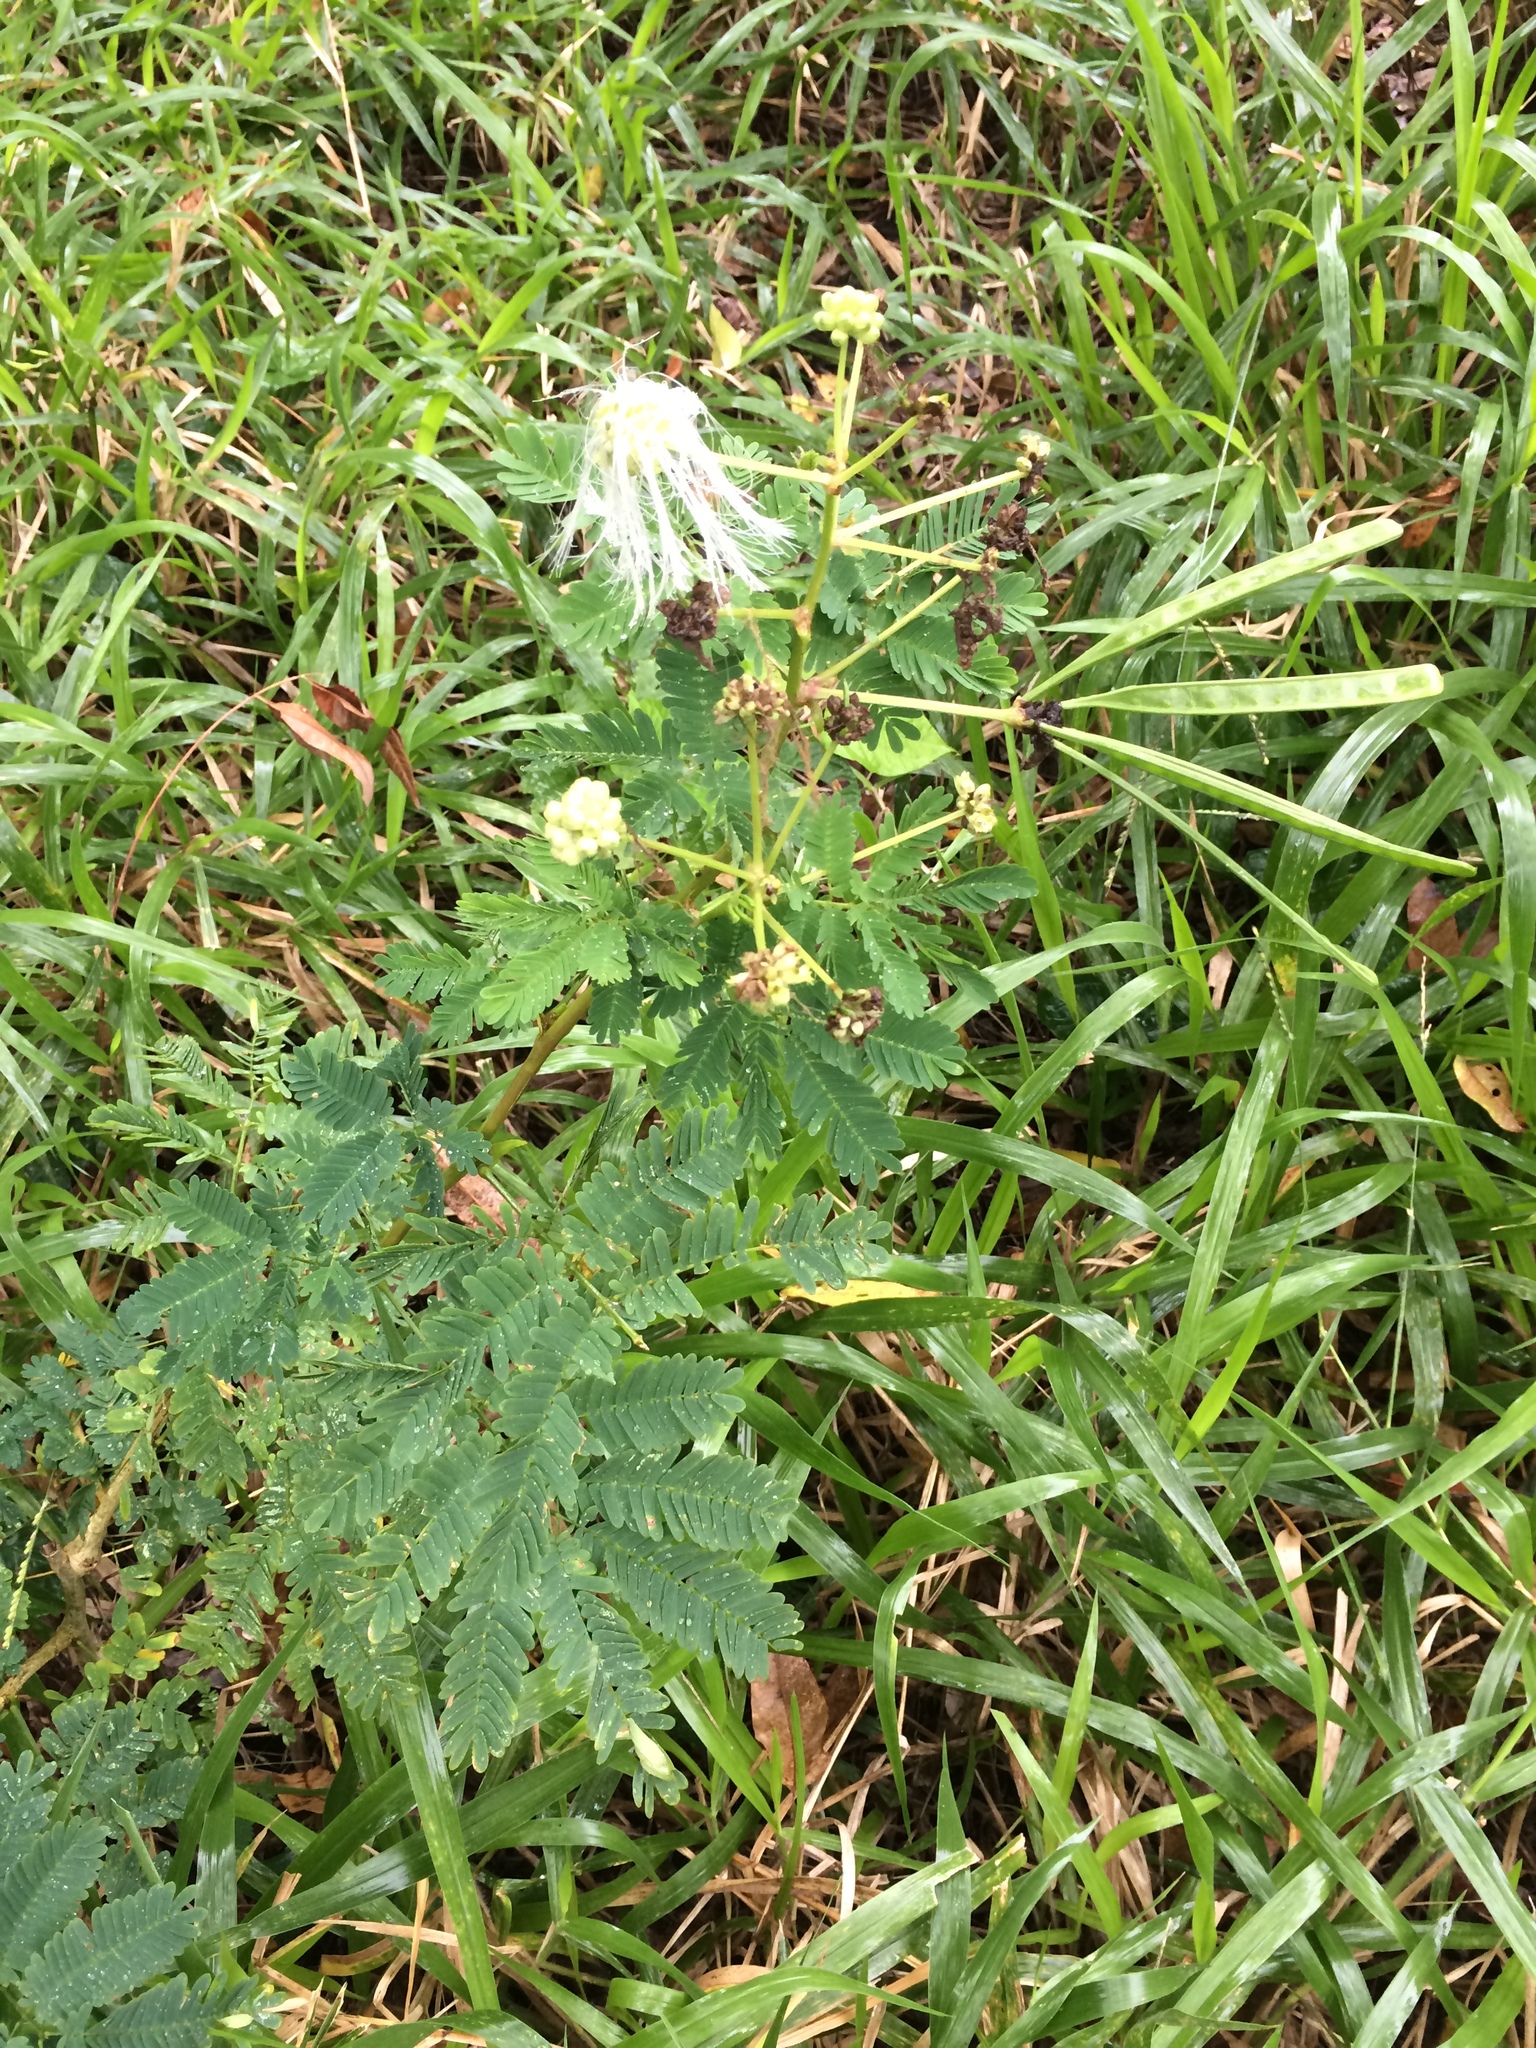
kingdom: Plantae
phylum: Tracheophyta
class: Magnoliopsida
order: Fabales
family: Fabaceae
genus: Leucaena
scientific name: Leucaena leucocephala
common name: White leadtree
